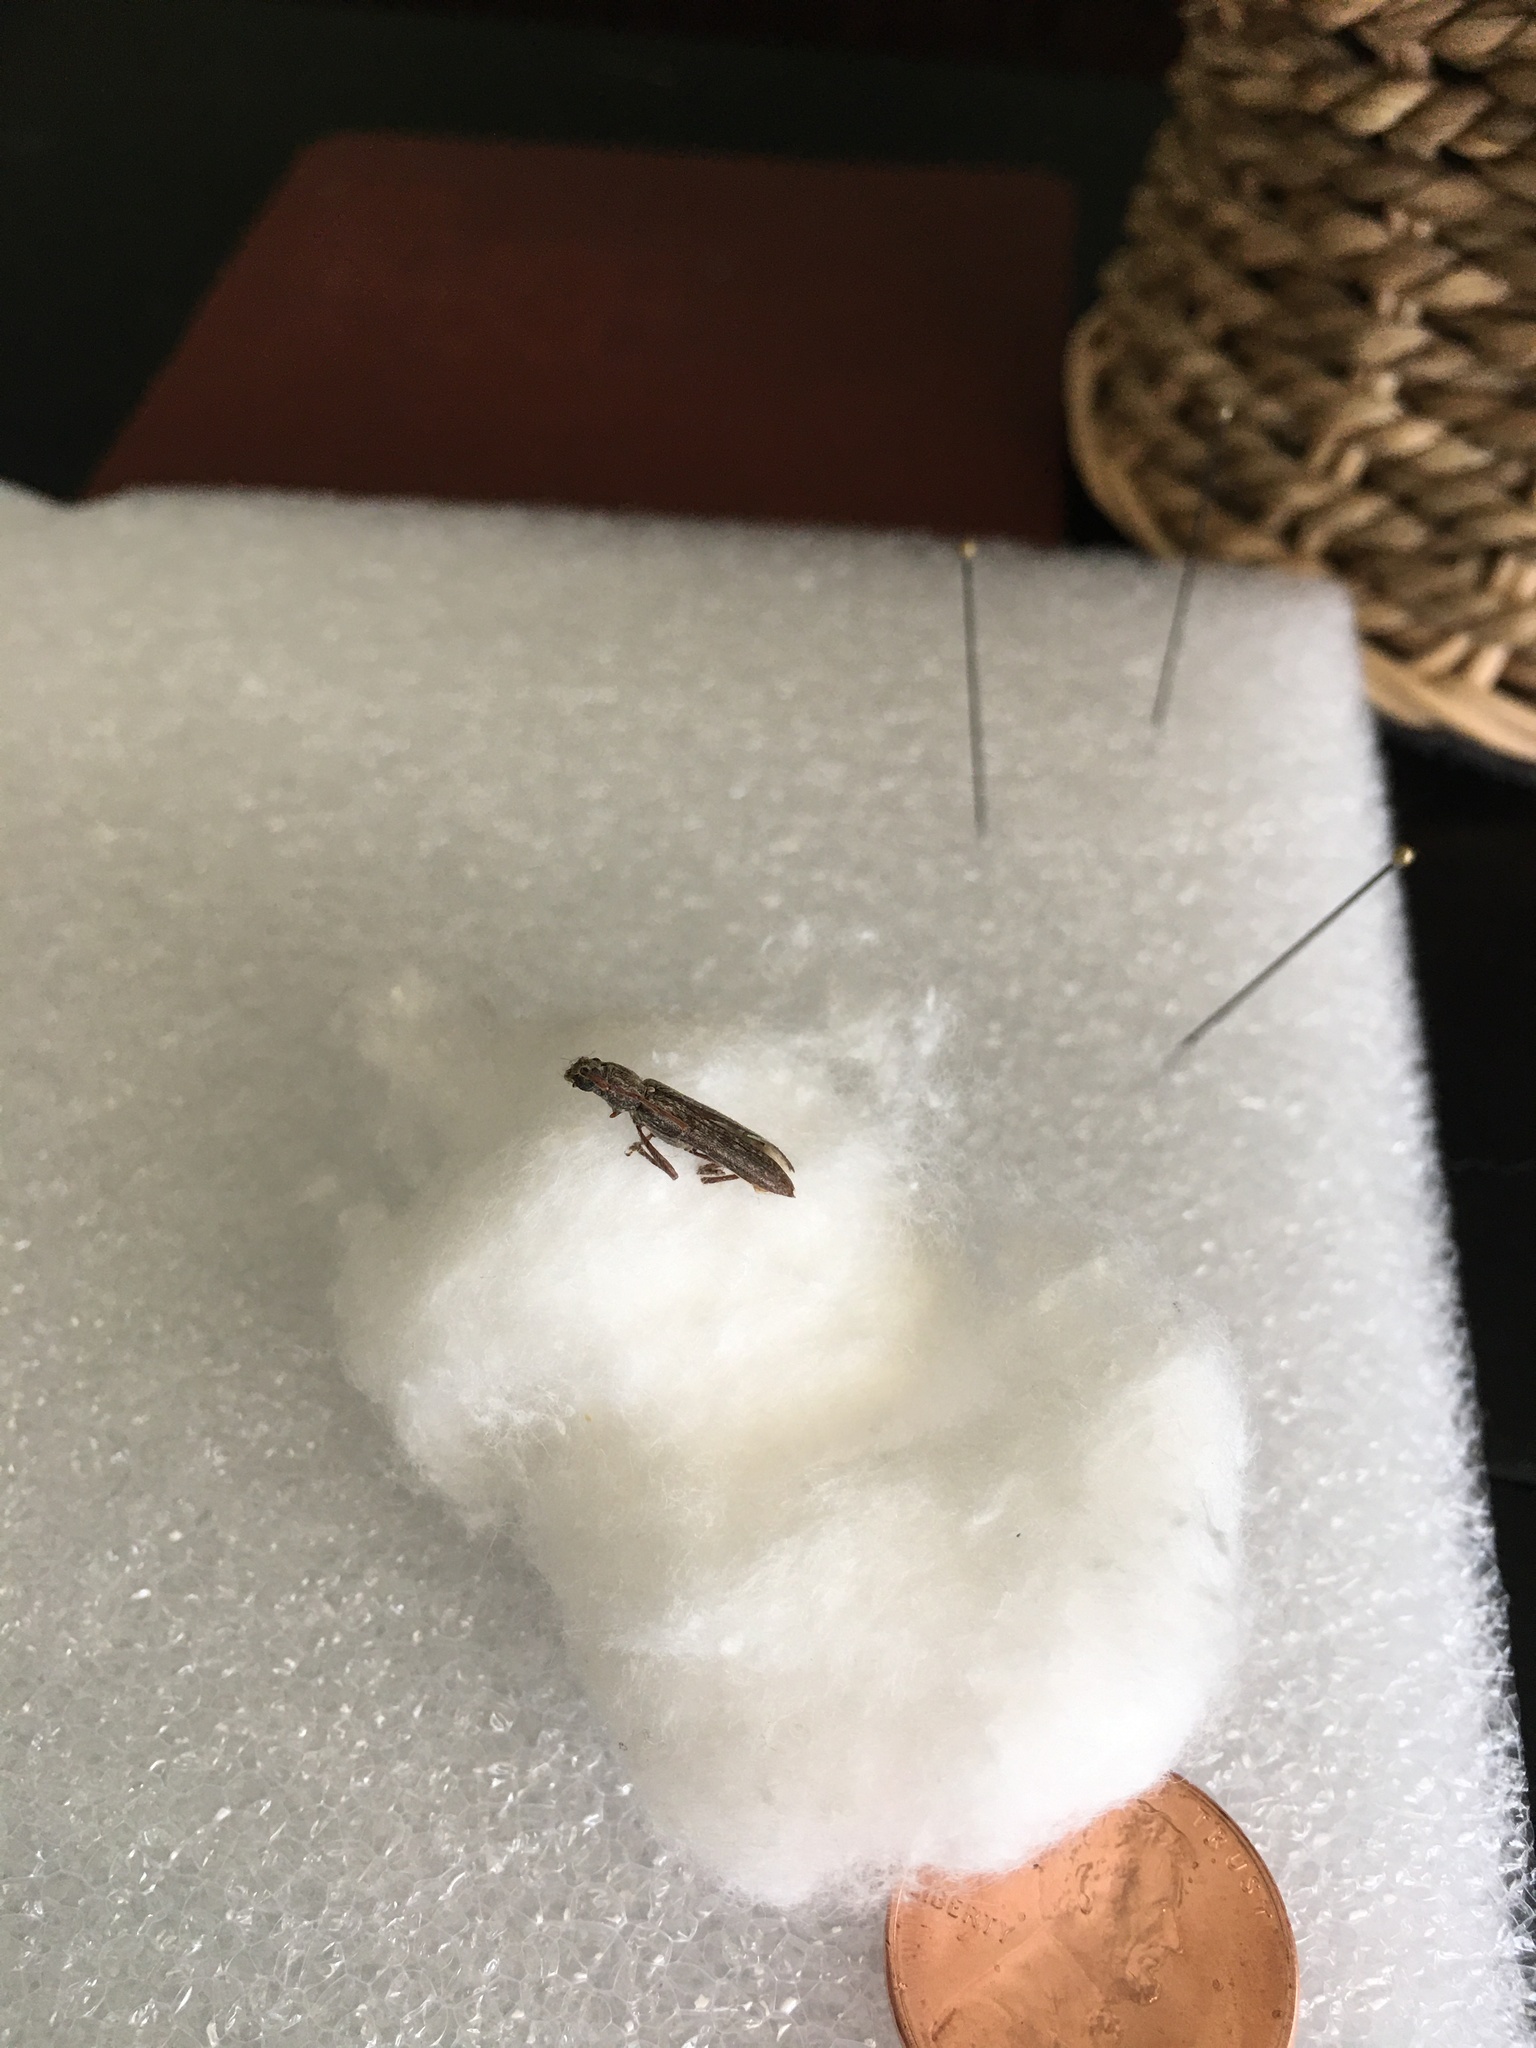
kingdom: Animalia
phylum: Arthropoda
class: Insecta
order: Coleoptera
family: Cerambycidae
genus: Anelaphus
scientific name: Anelaphus villosus
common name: Twig pruner
